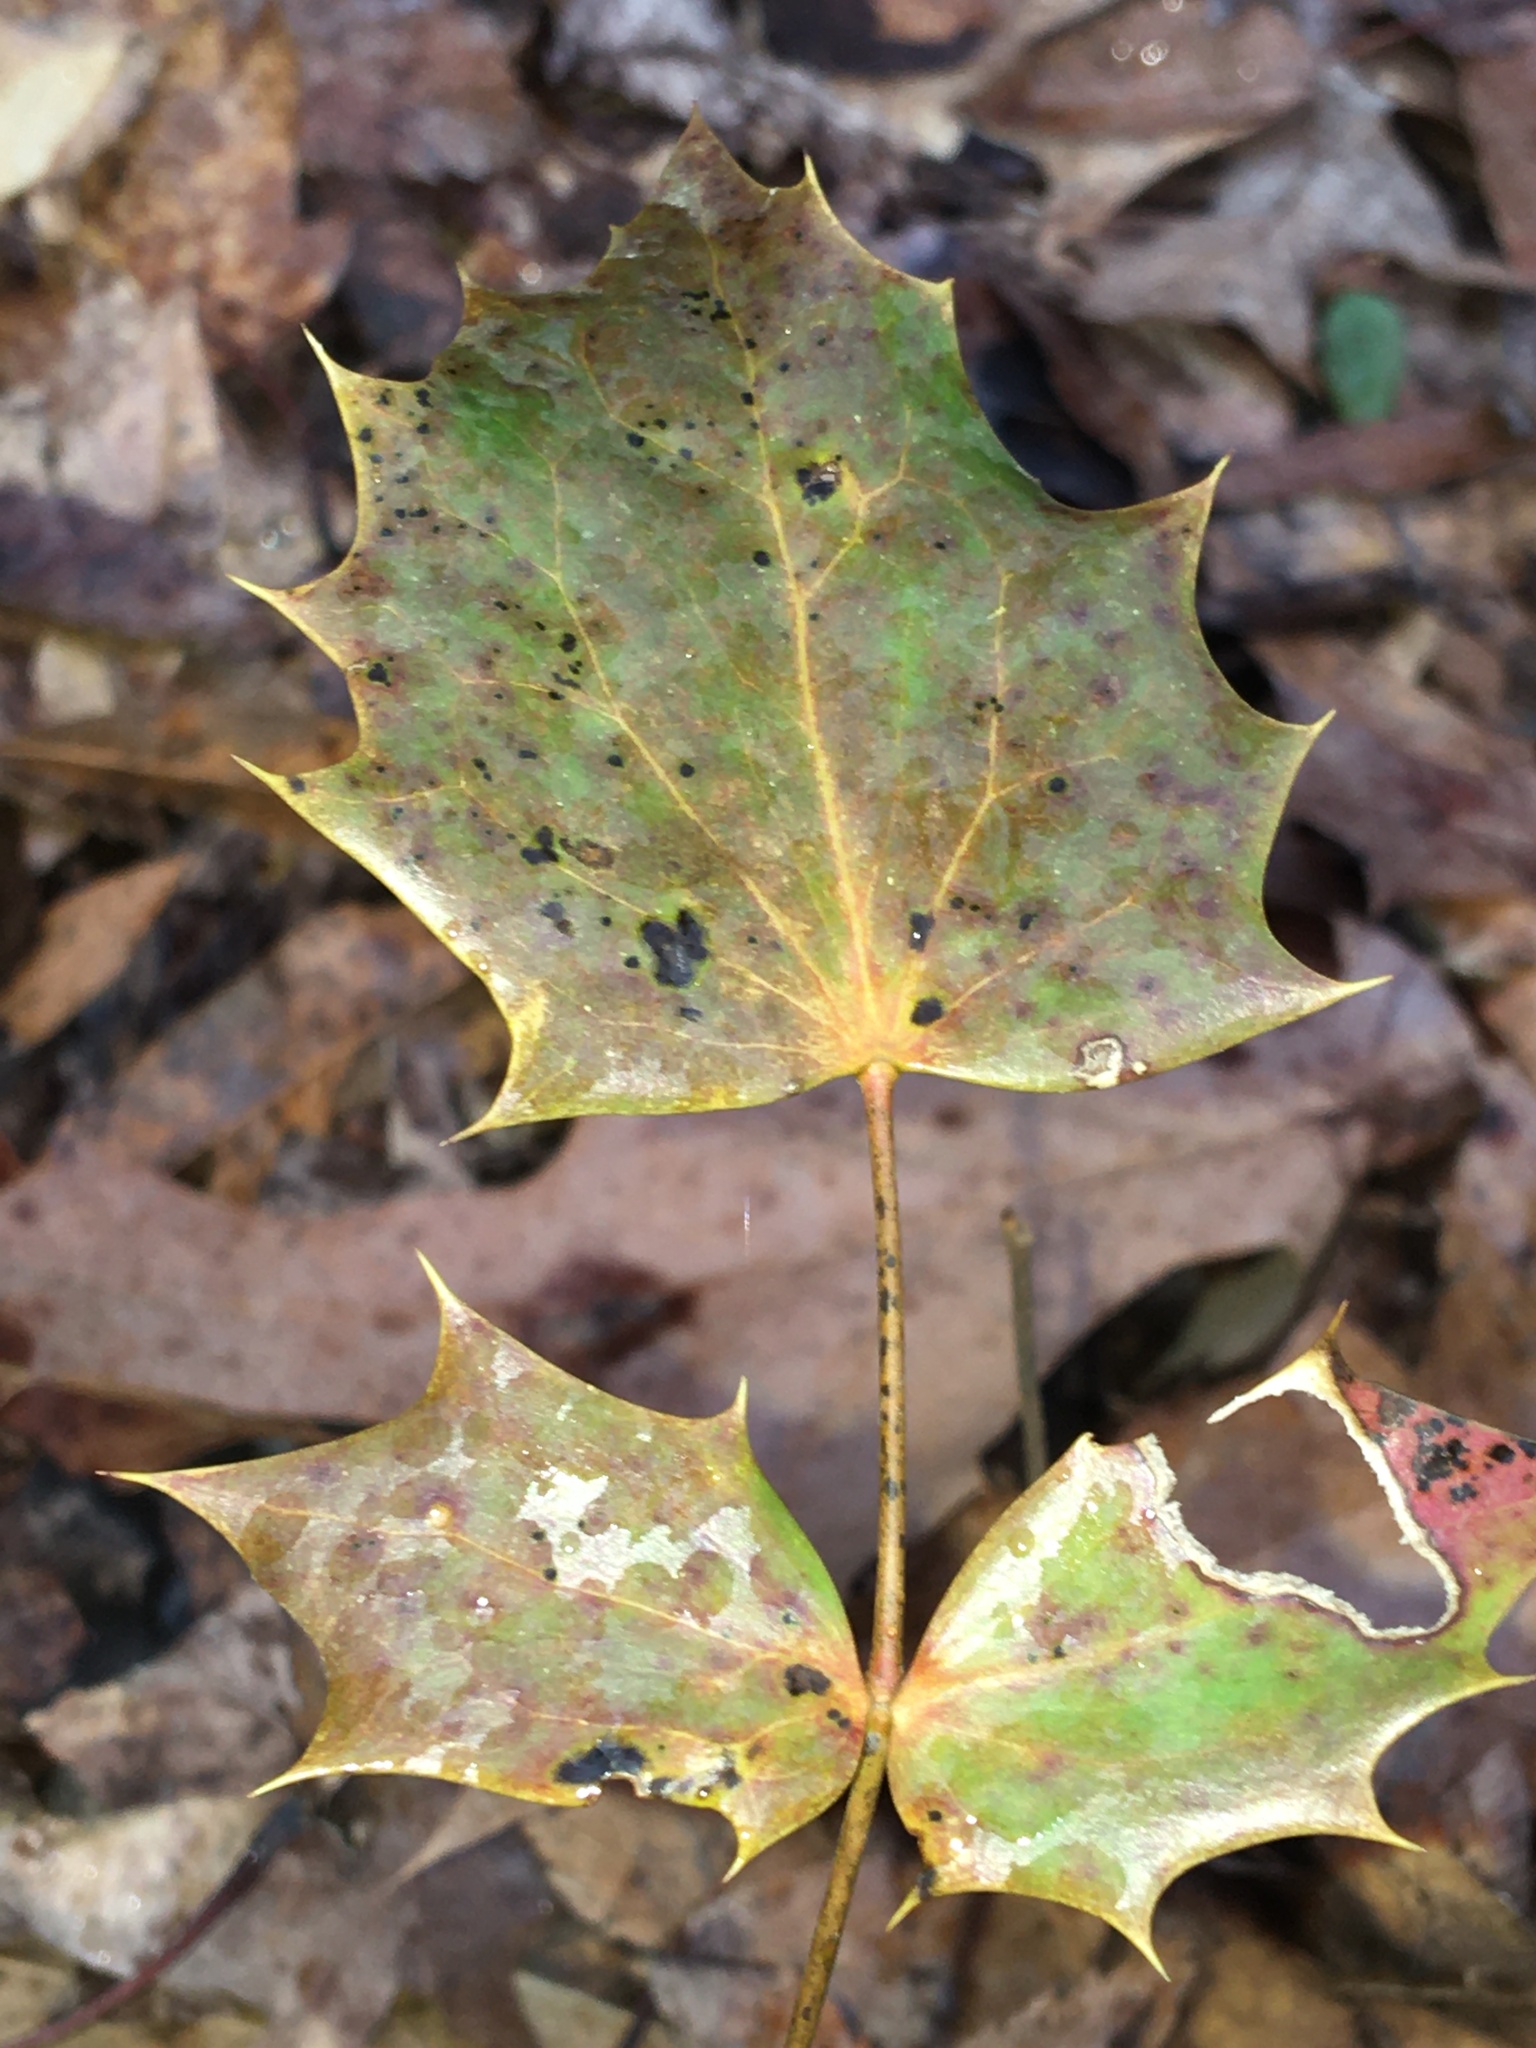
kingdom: Plantae
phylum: Tracheophyta
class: Magnoliopsida
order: Ranunculales
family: Berberidaceae
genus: Mahonia
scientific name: Mahonia bealei
